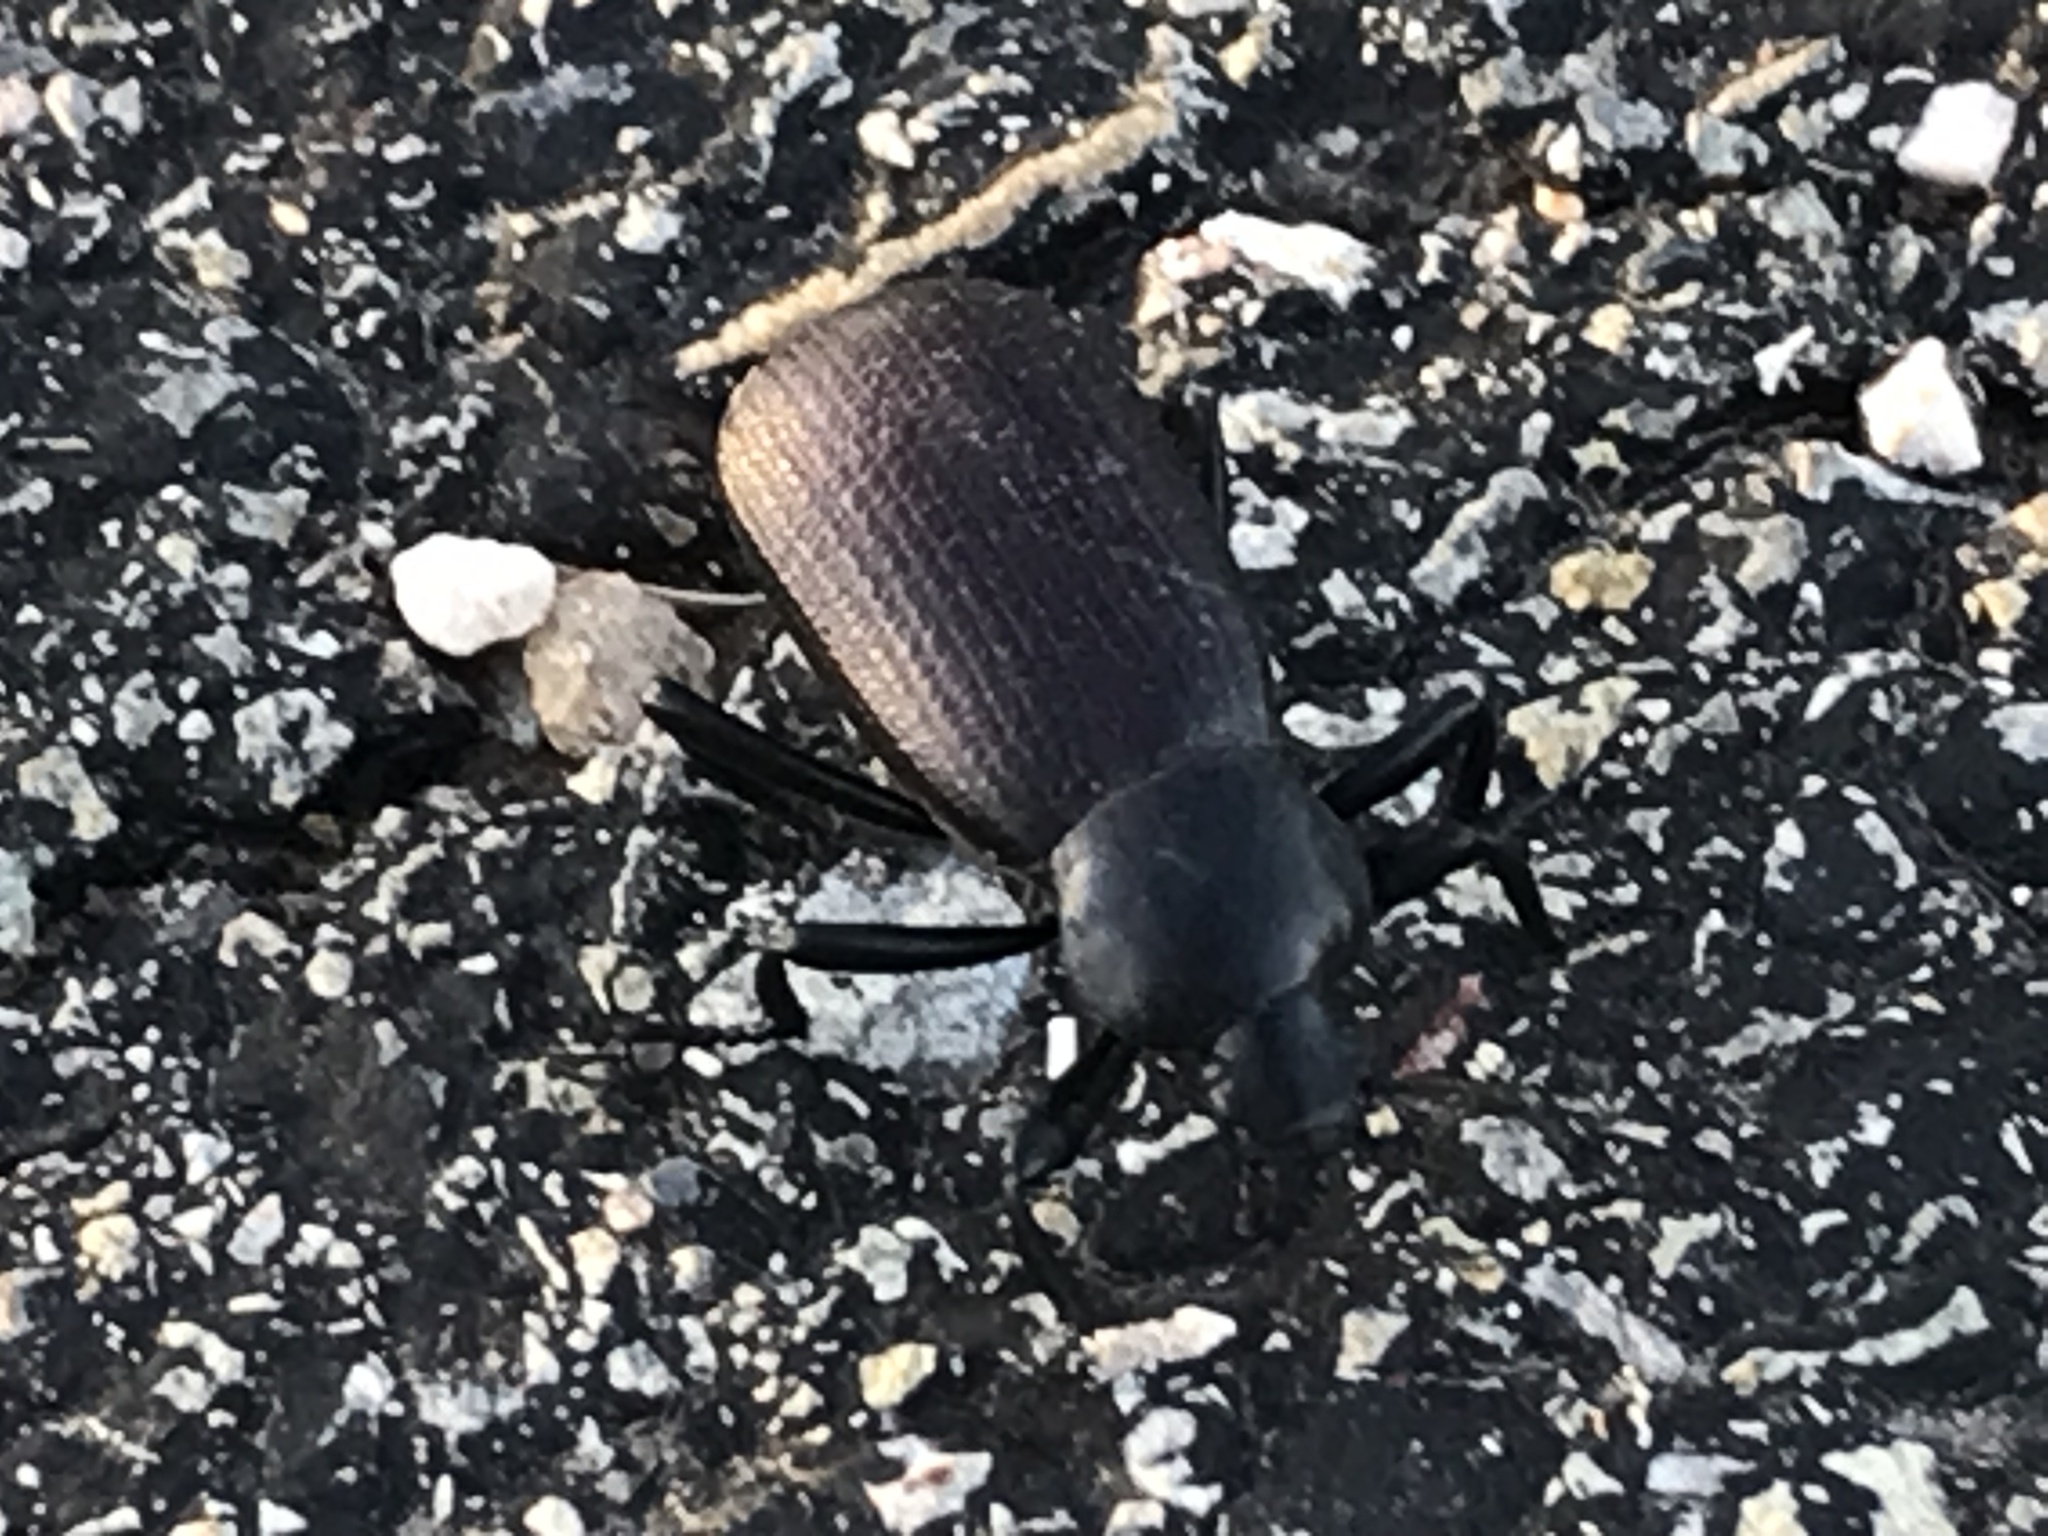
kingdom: Animalia
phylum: Arthropoda
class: Insecta
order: Coleoptera
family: Tenebrionidae
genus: Eleodes
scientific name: Eleodes obscura
